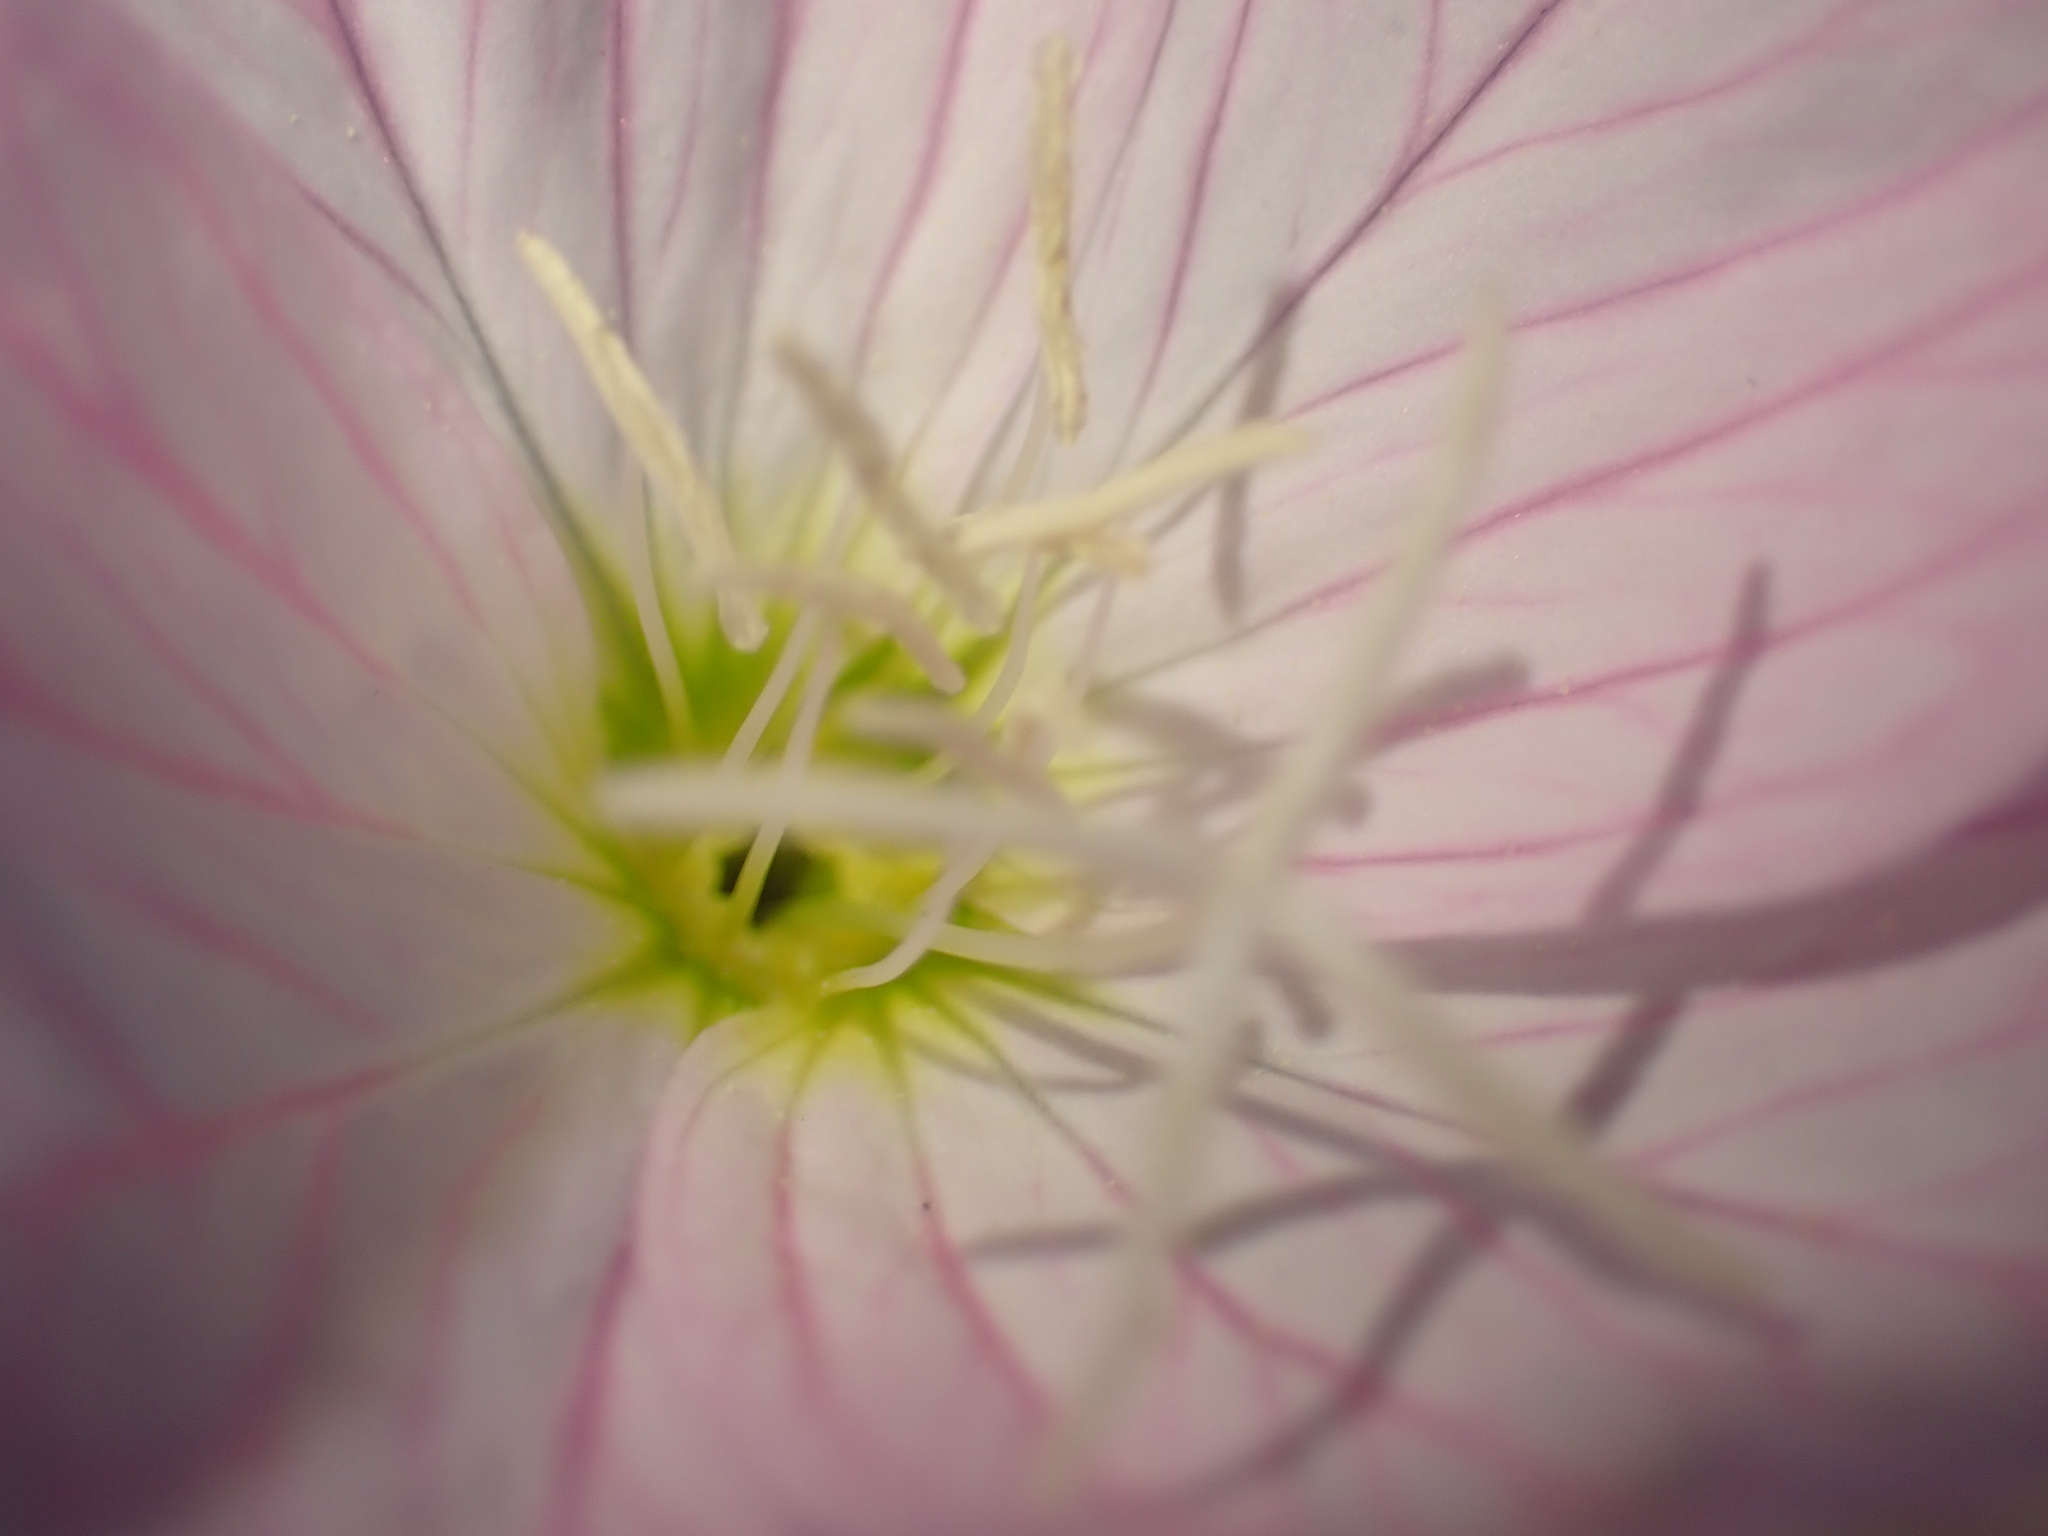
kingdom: Plantae
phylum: Tracheophyta
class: Magnoliopsida
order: Myrtales
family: Onagraceae
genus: Oenothera
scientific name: Oenothera speciosa
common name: White evening-primrose
